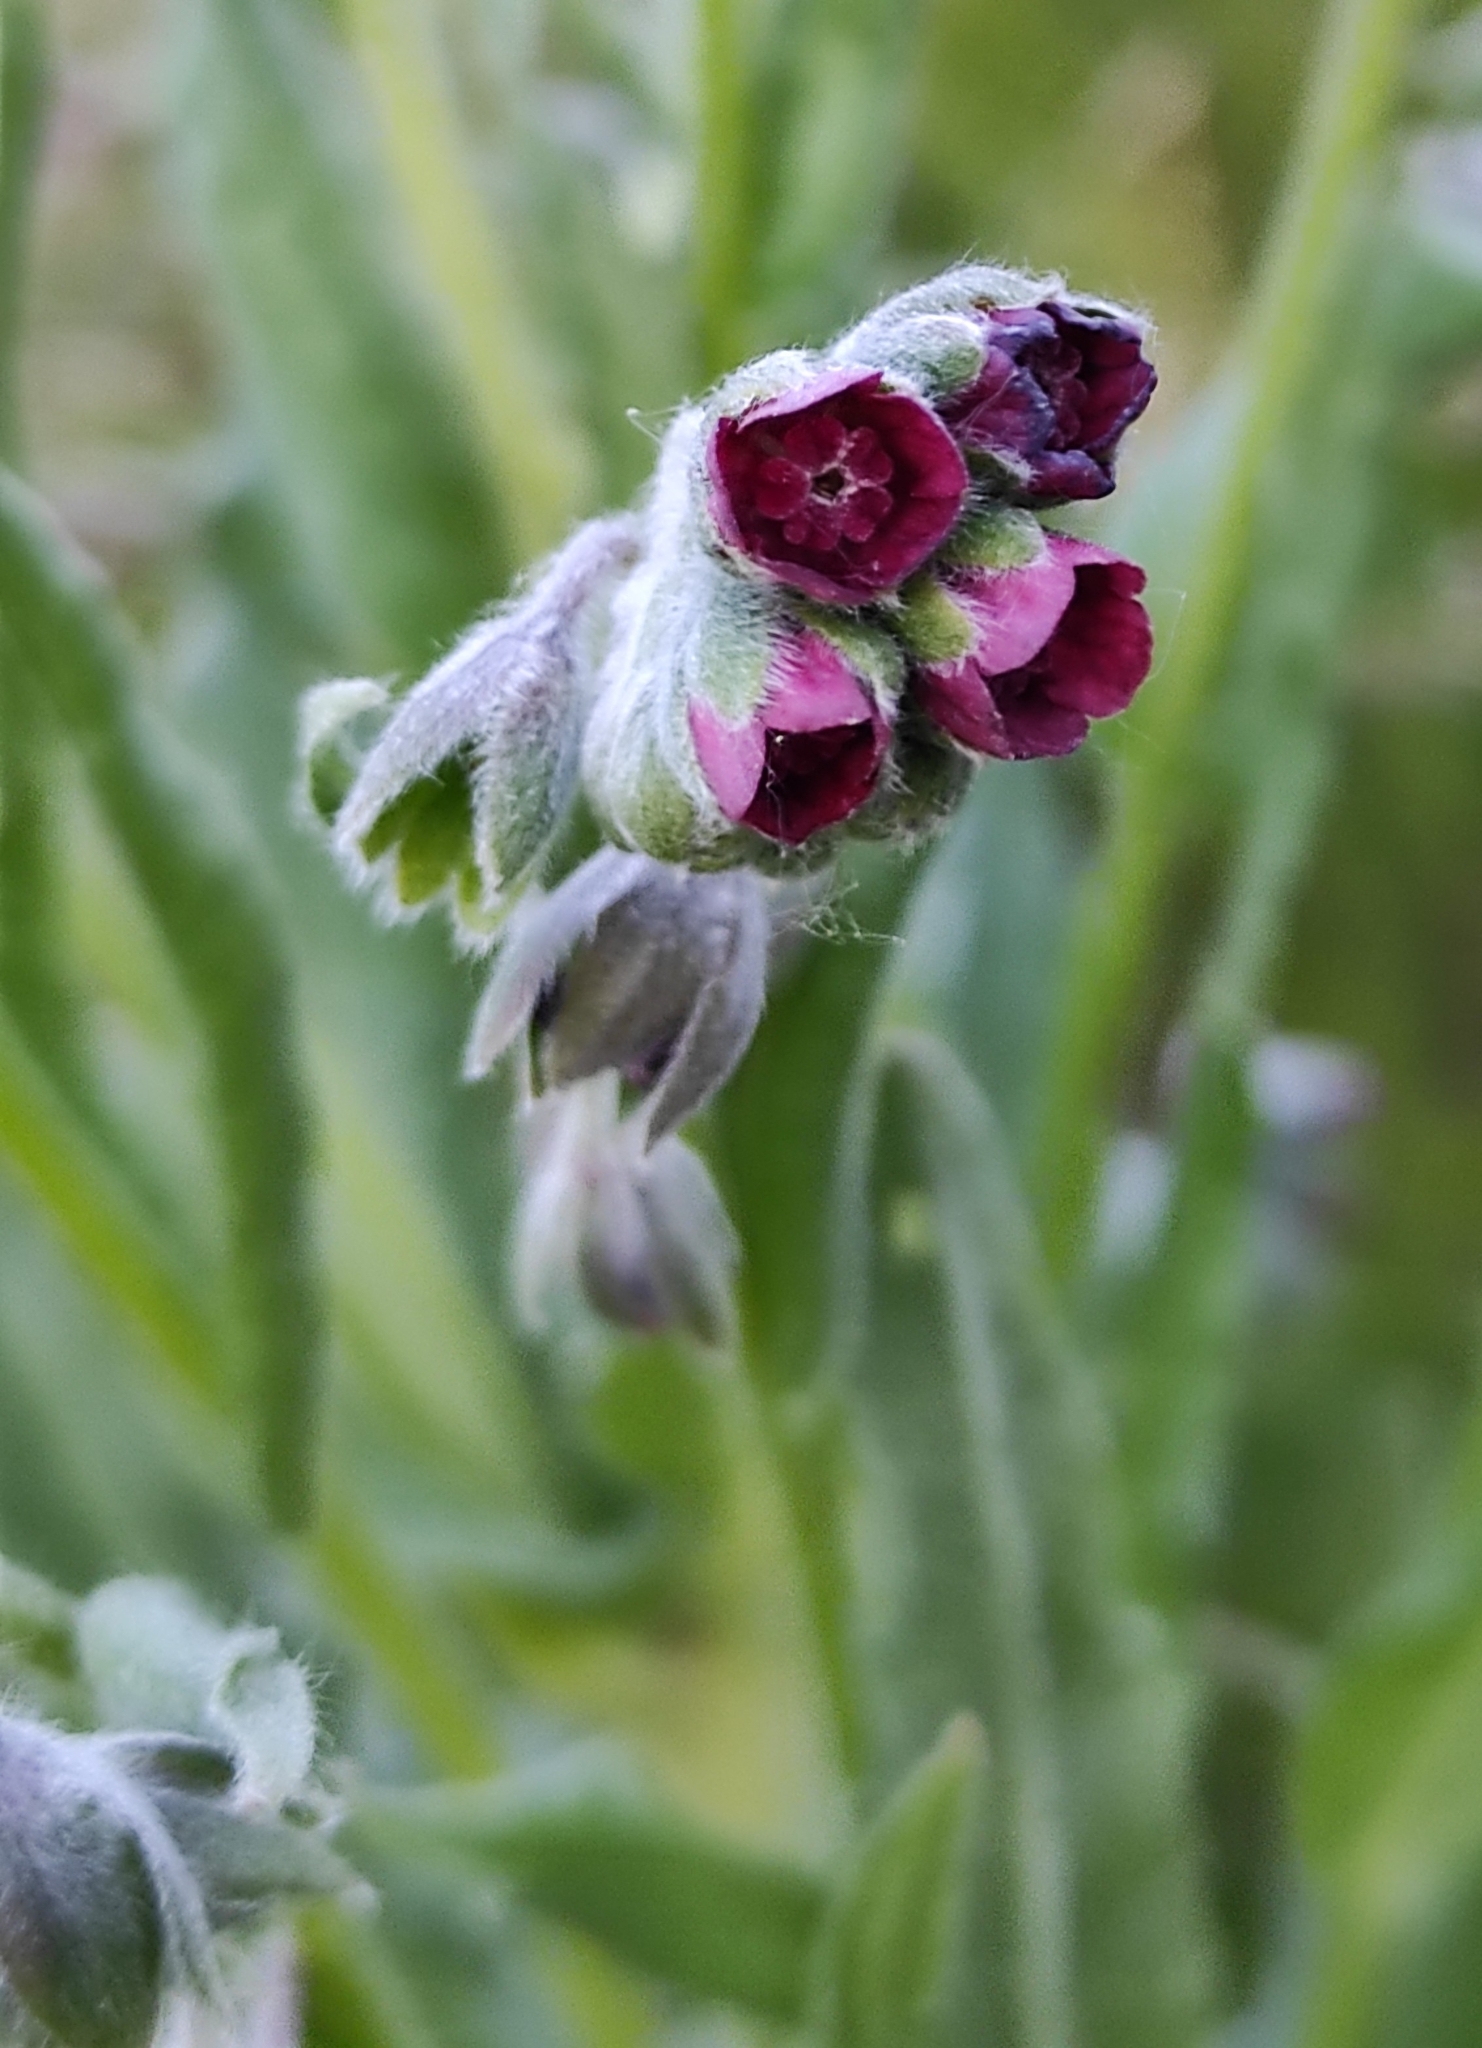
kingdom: Plantae
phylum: Tracheophyta
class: Magnoliopsida
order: Boraginales
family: Boraginaceae
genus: Cynoglossum
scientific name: Cynoglossum officinale
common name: Hound's-tongue
